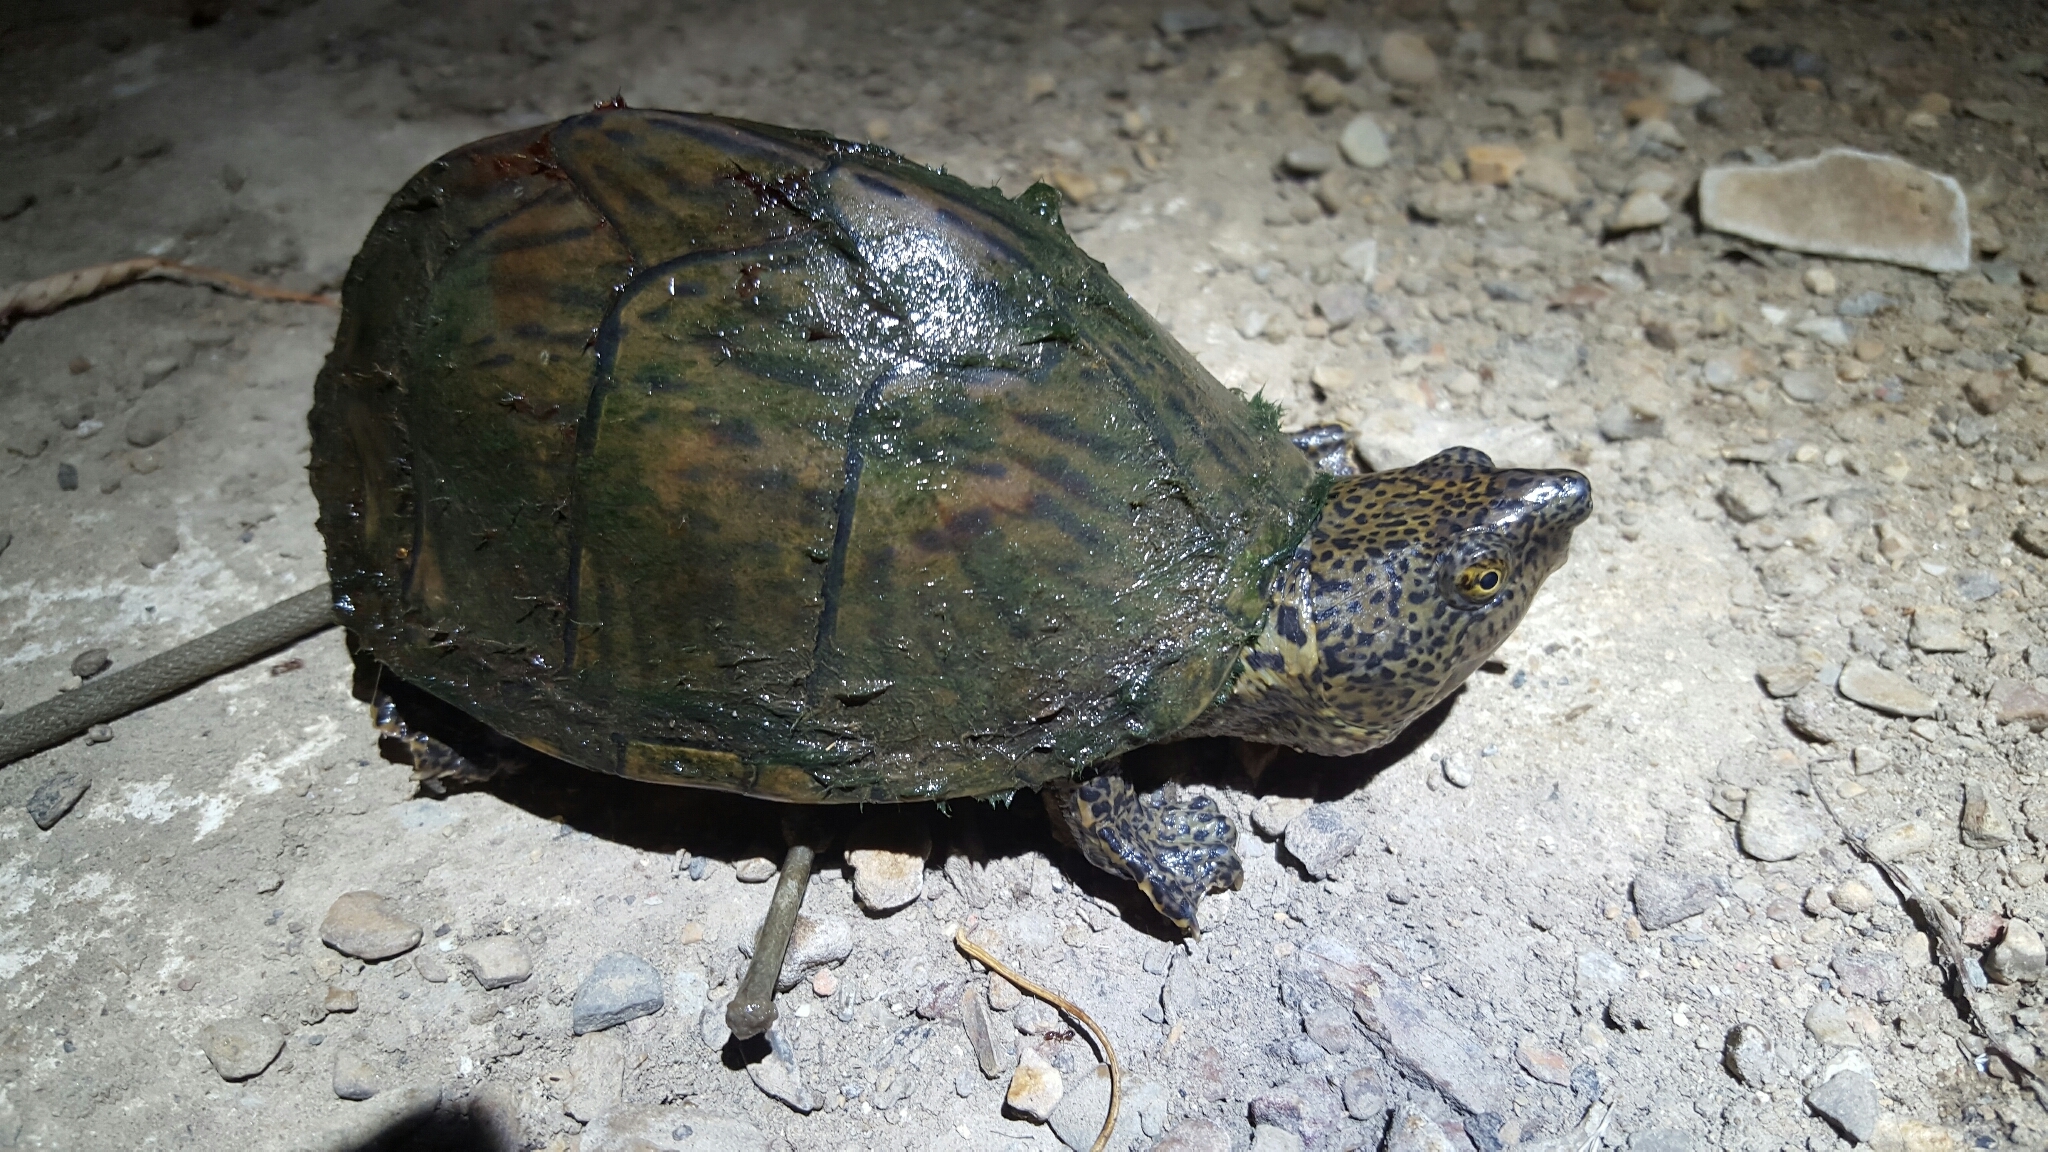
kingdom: Animalia
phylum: Chordata
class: Testudines
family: Kinosternidae
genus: Sternotherus
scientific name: Sternotherus carinatus
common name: Razor-backed musk turtle
